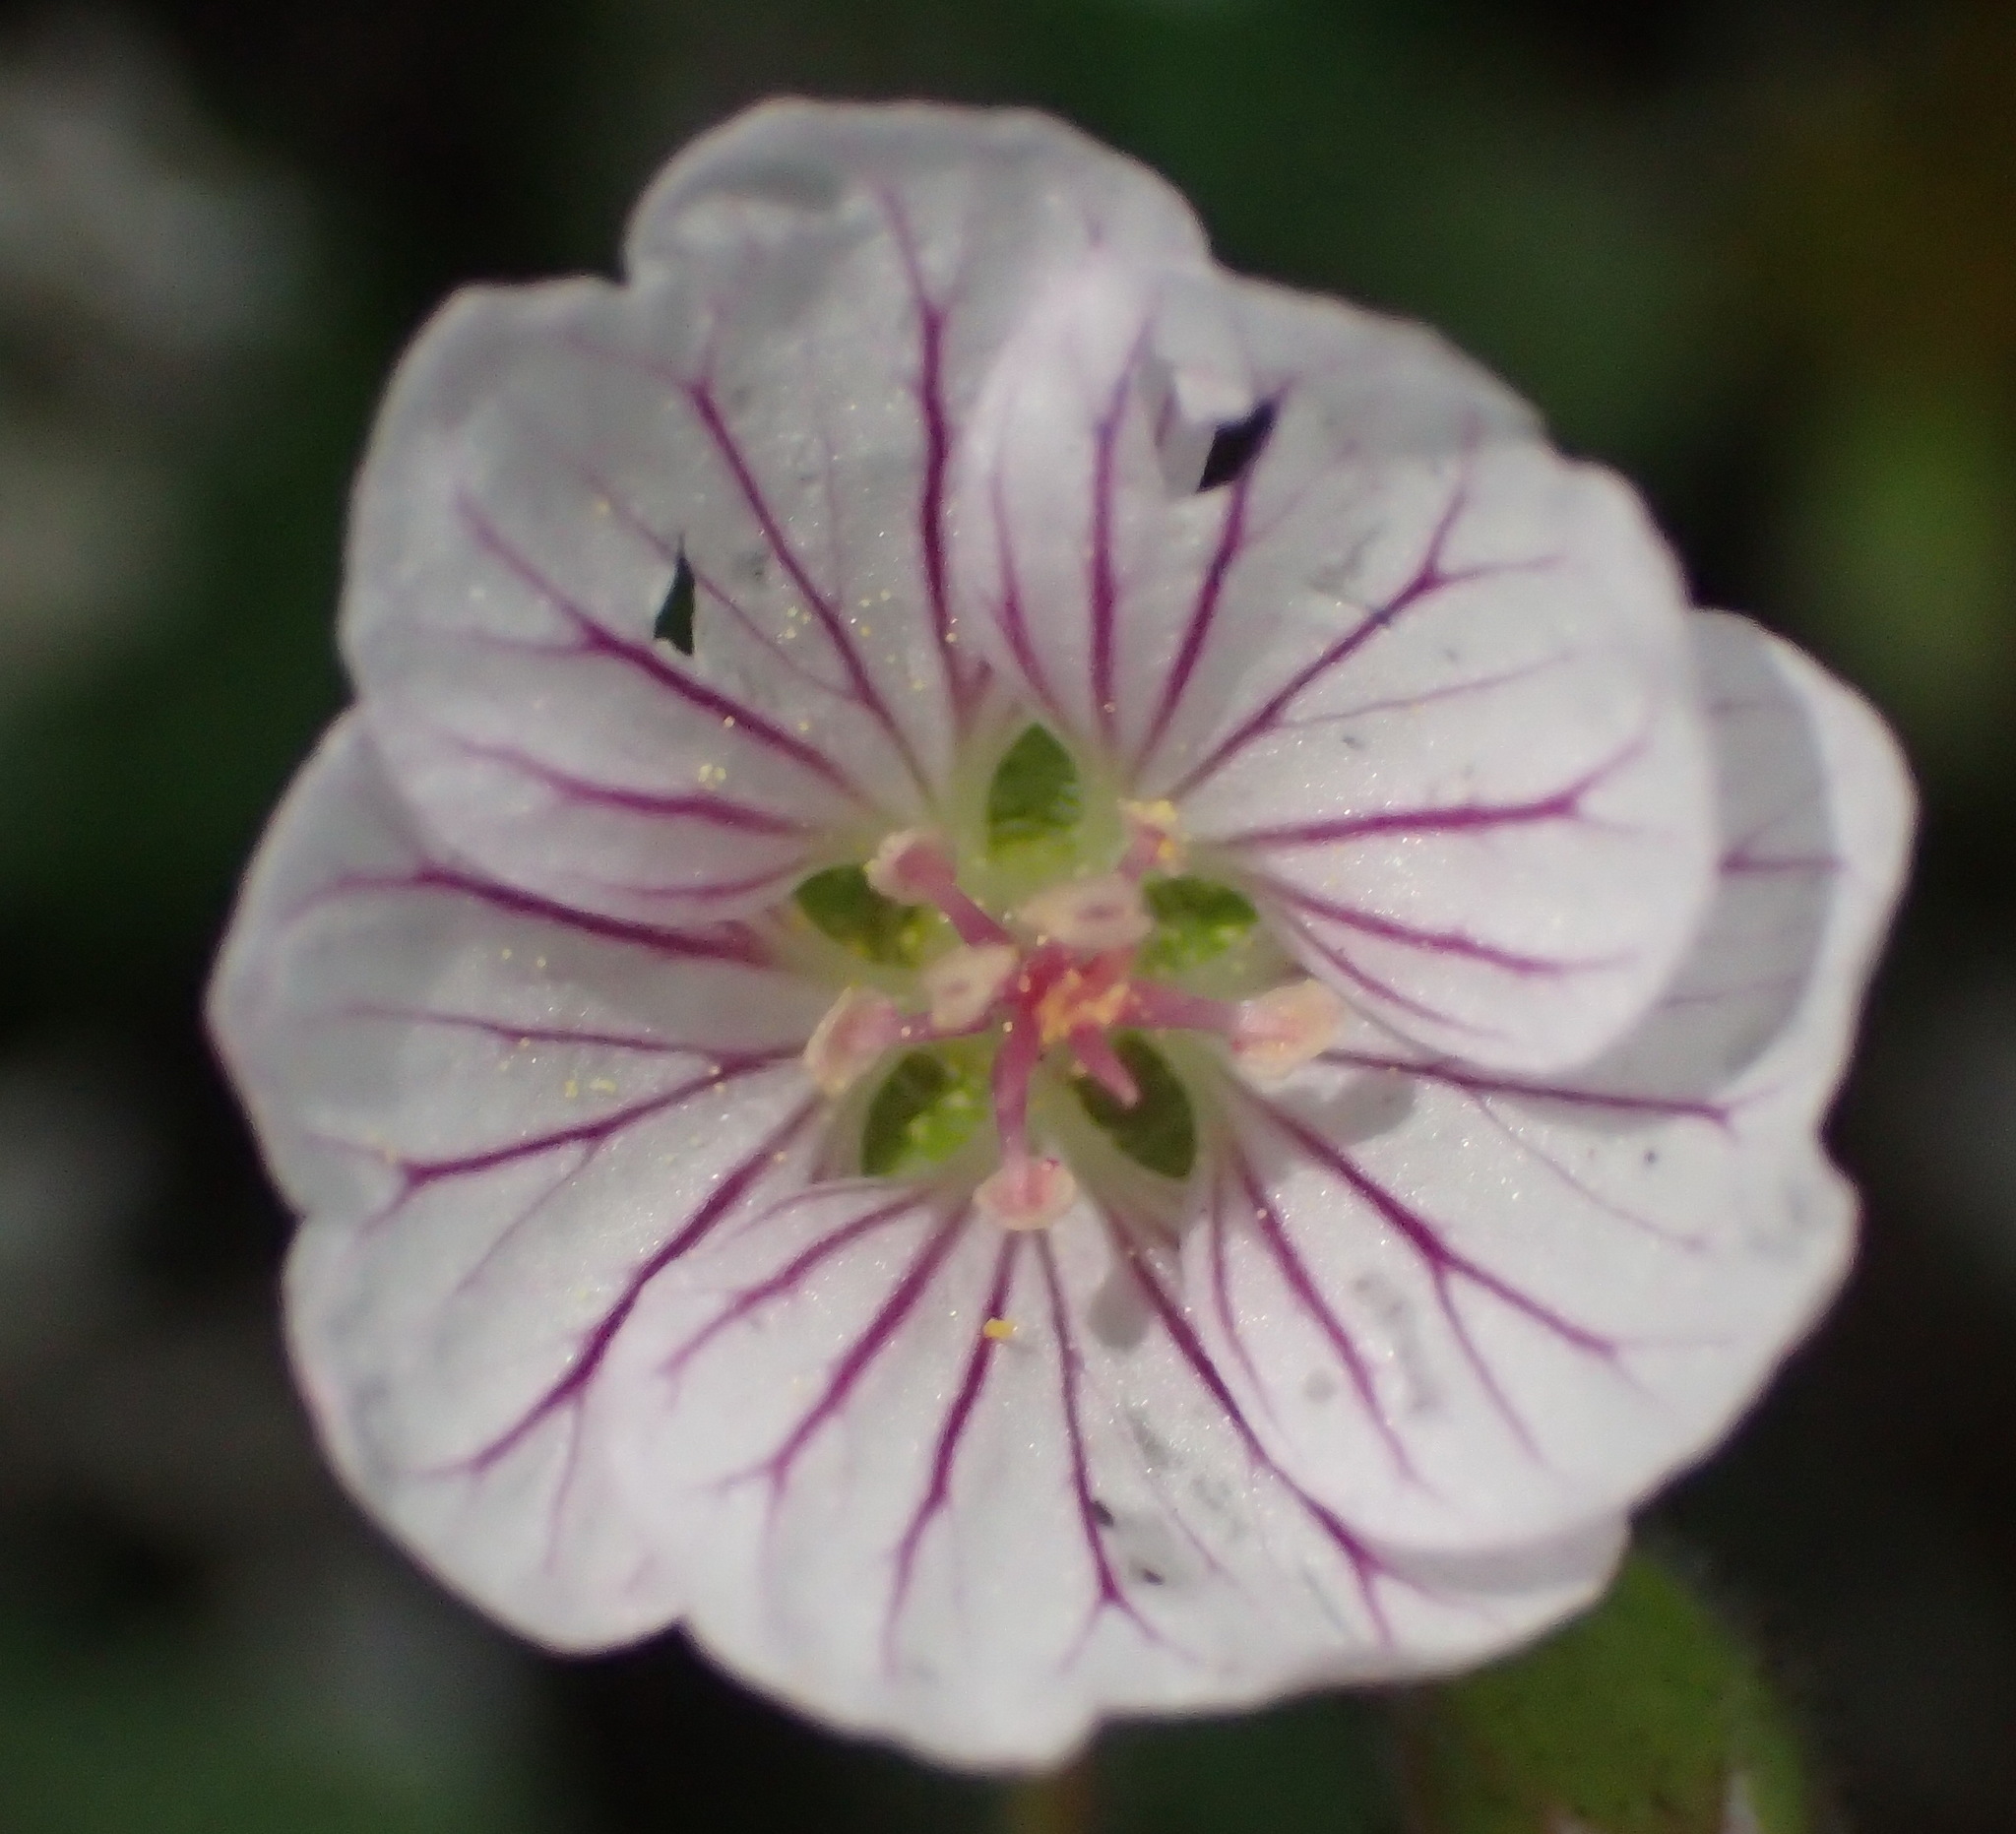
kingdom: Plantae
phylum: Tracheophyta
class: Magnoliopsida
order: Geraniales
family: Geraniaceae
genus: Geranium
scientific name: Geranium ornithopodon
